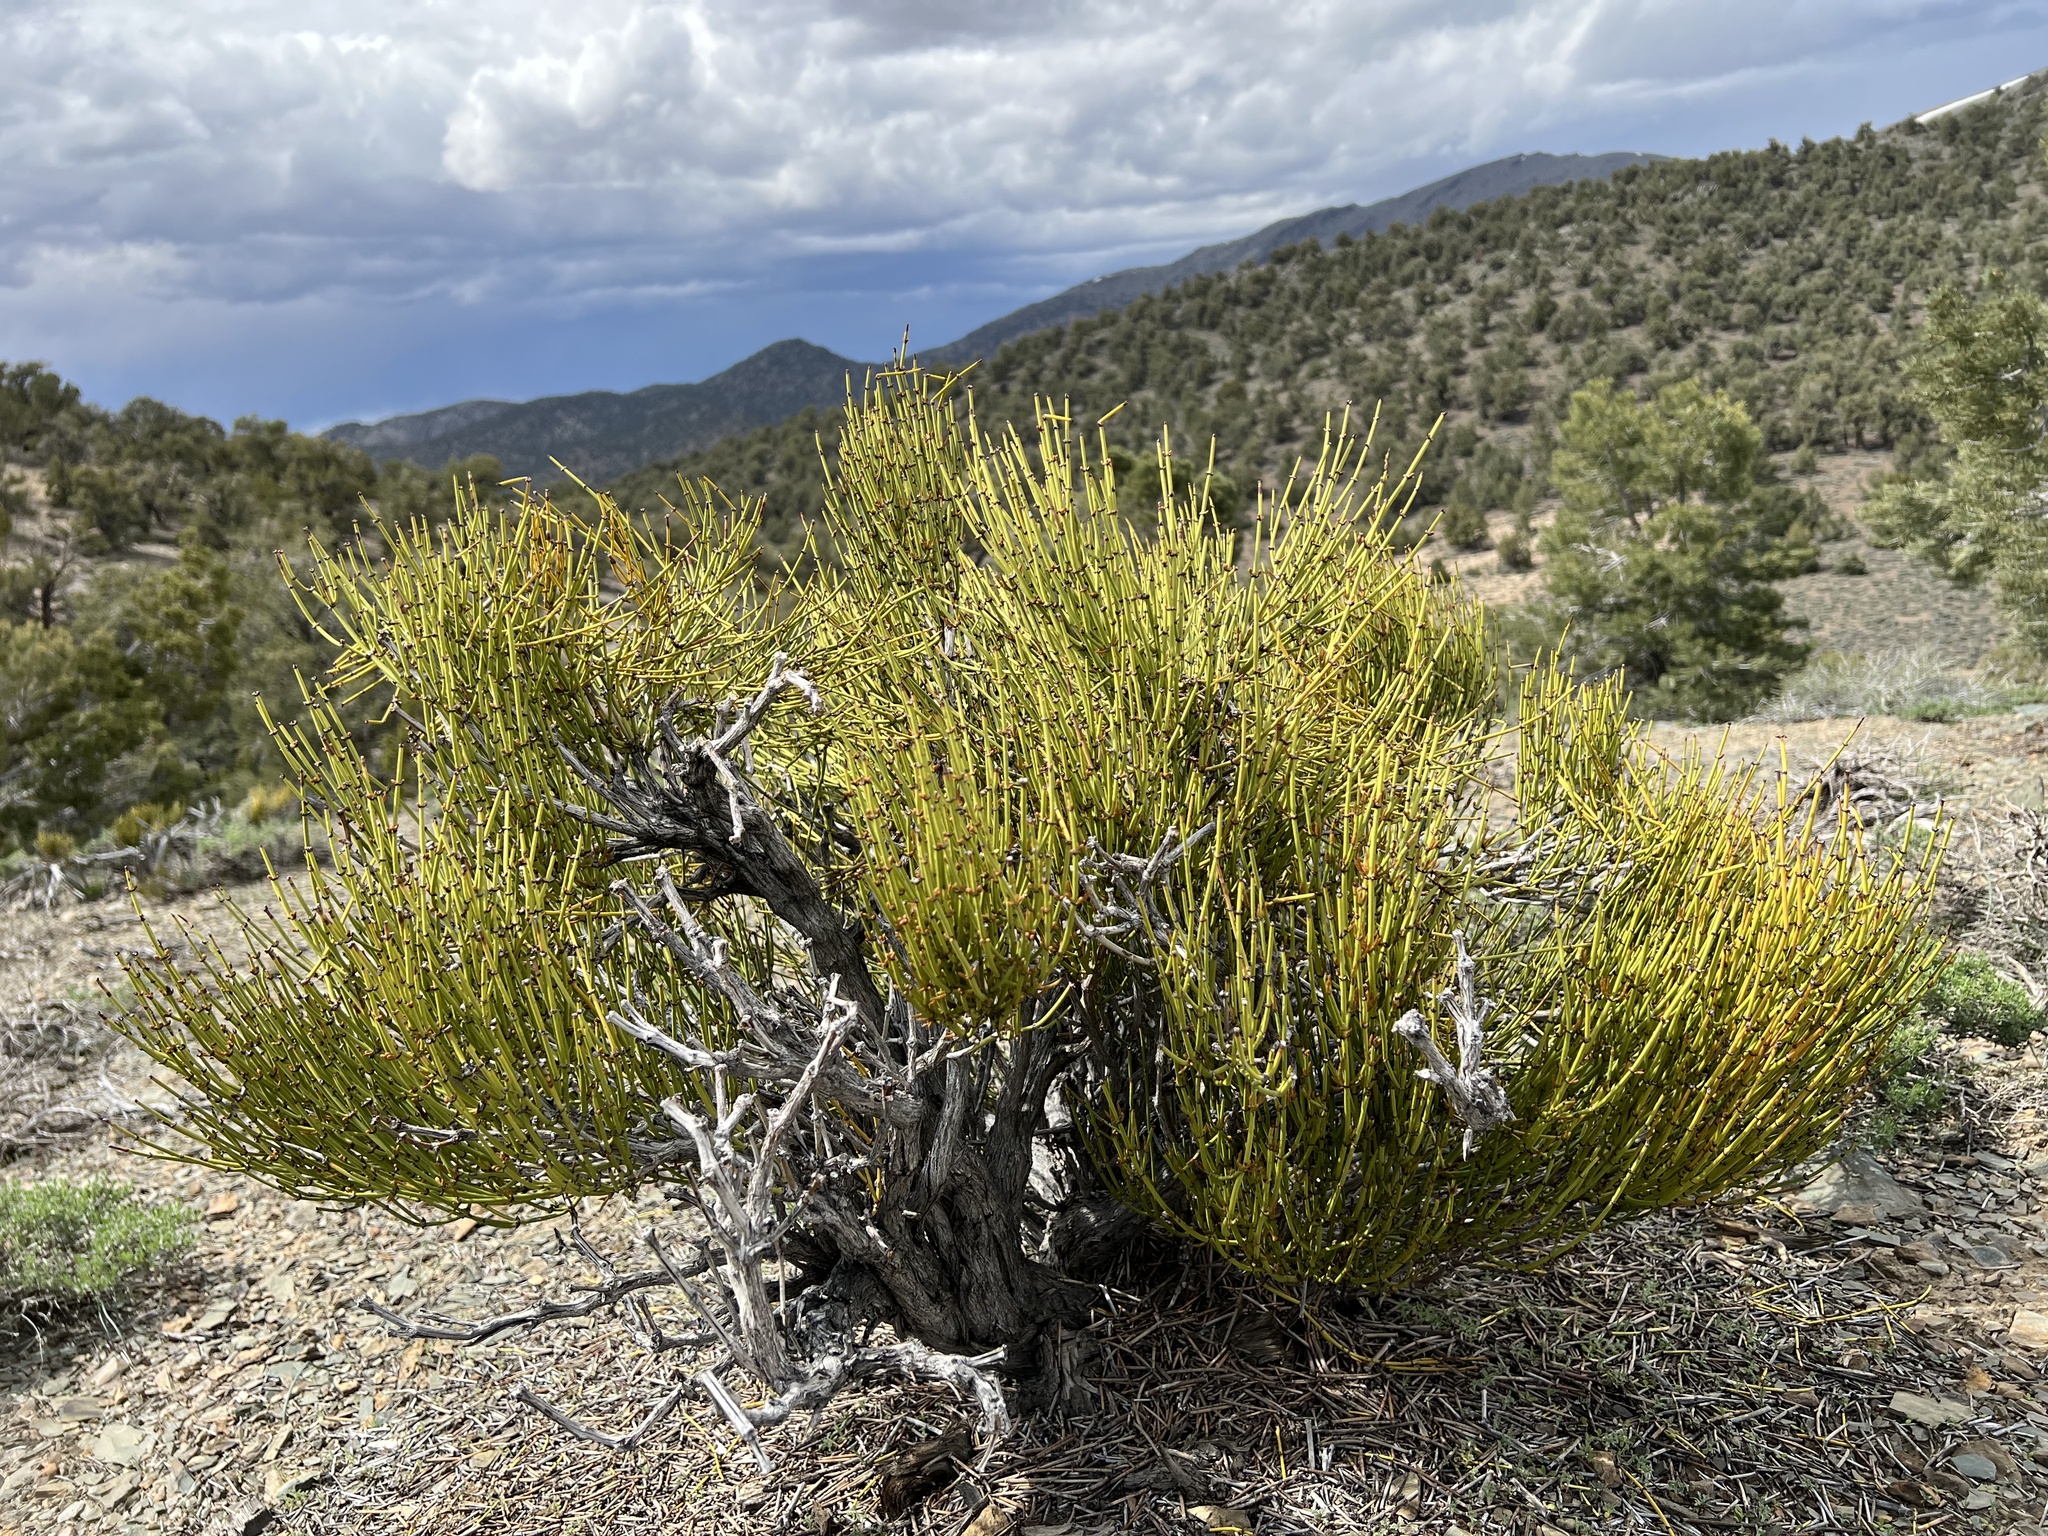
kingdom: Plantae
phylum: Tracheophyta
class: Gnetopsida
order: Ephedrales
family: Ephedraceae
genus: Ephedra
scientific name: Ephedra viridis
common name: Green ephedra
